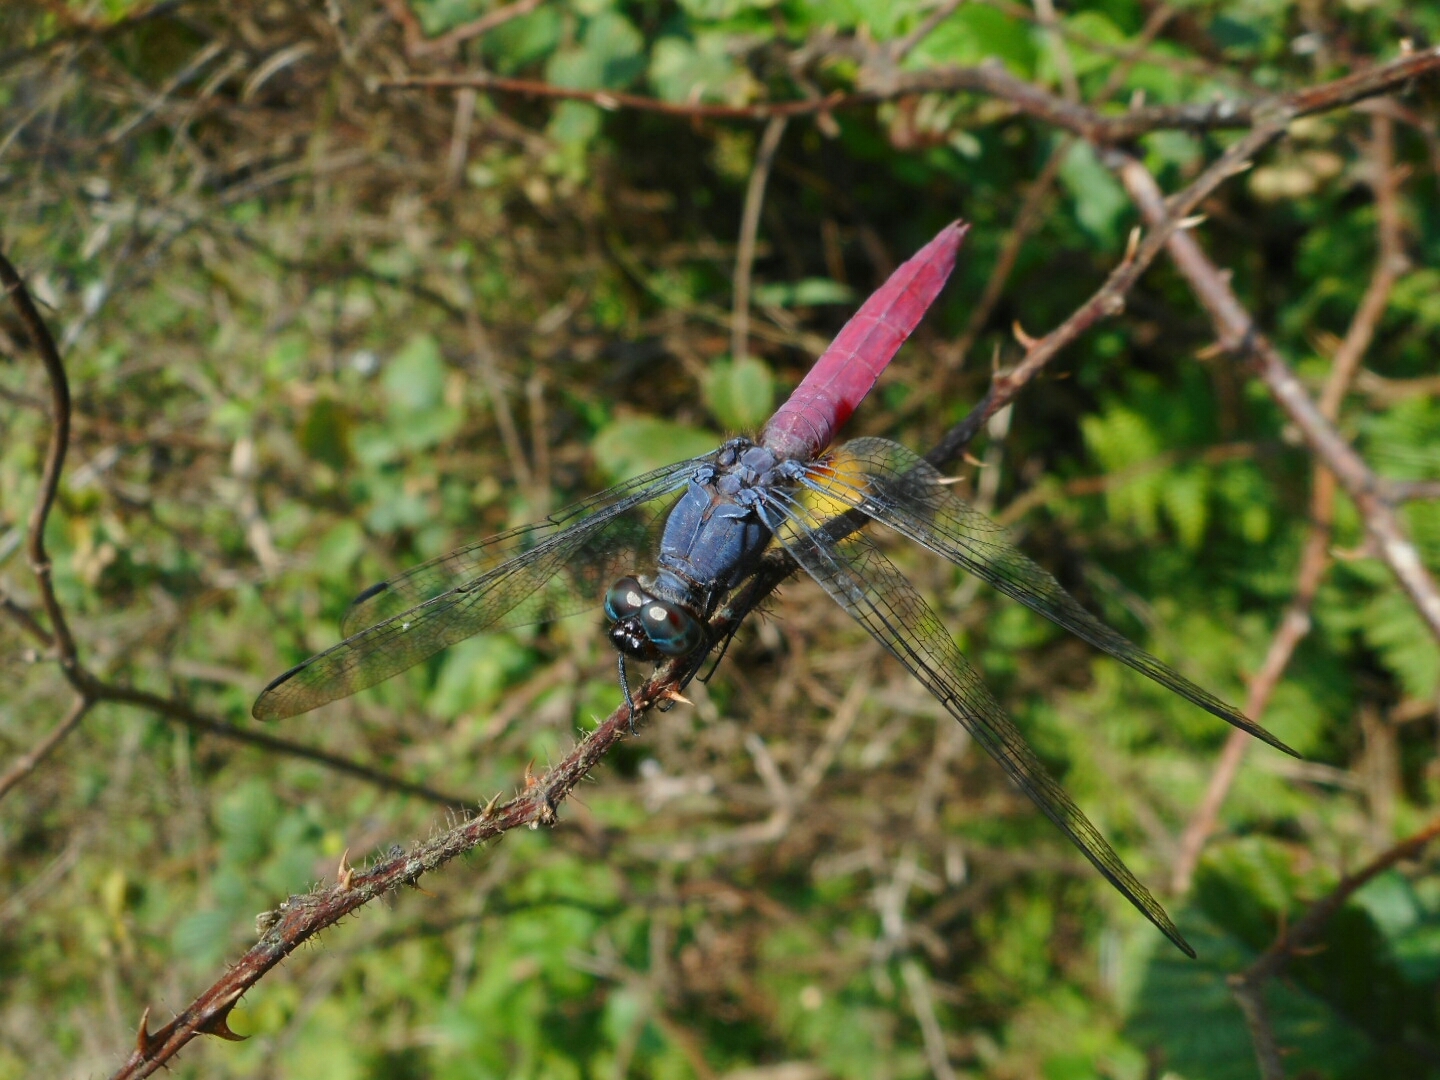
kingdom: Animalia
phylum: Arthropoda
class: Insecta
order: Odonata
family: Libellulidae
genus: Orthetrum
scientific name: Orthetrum pruinosum
